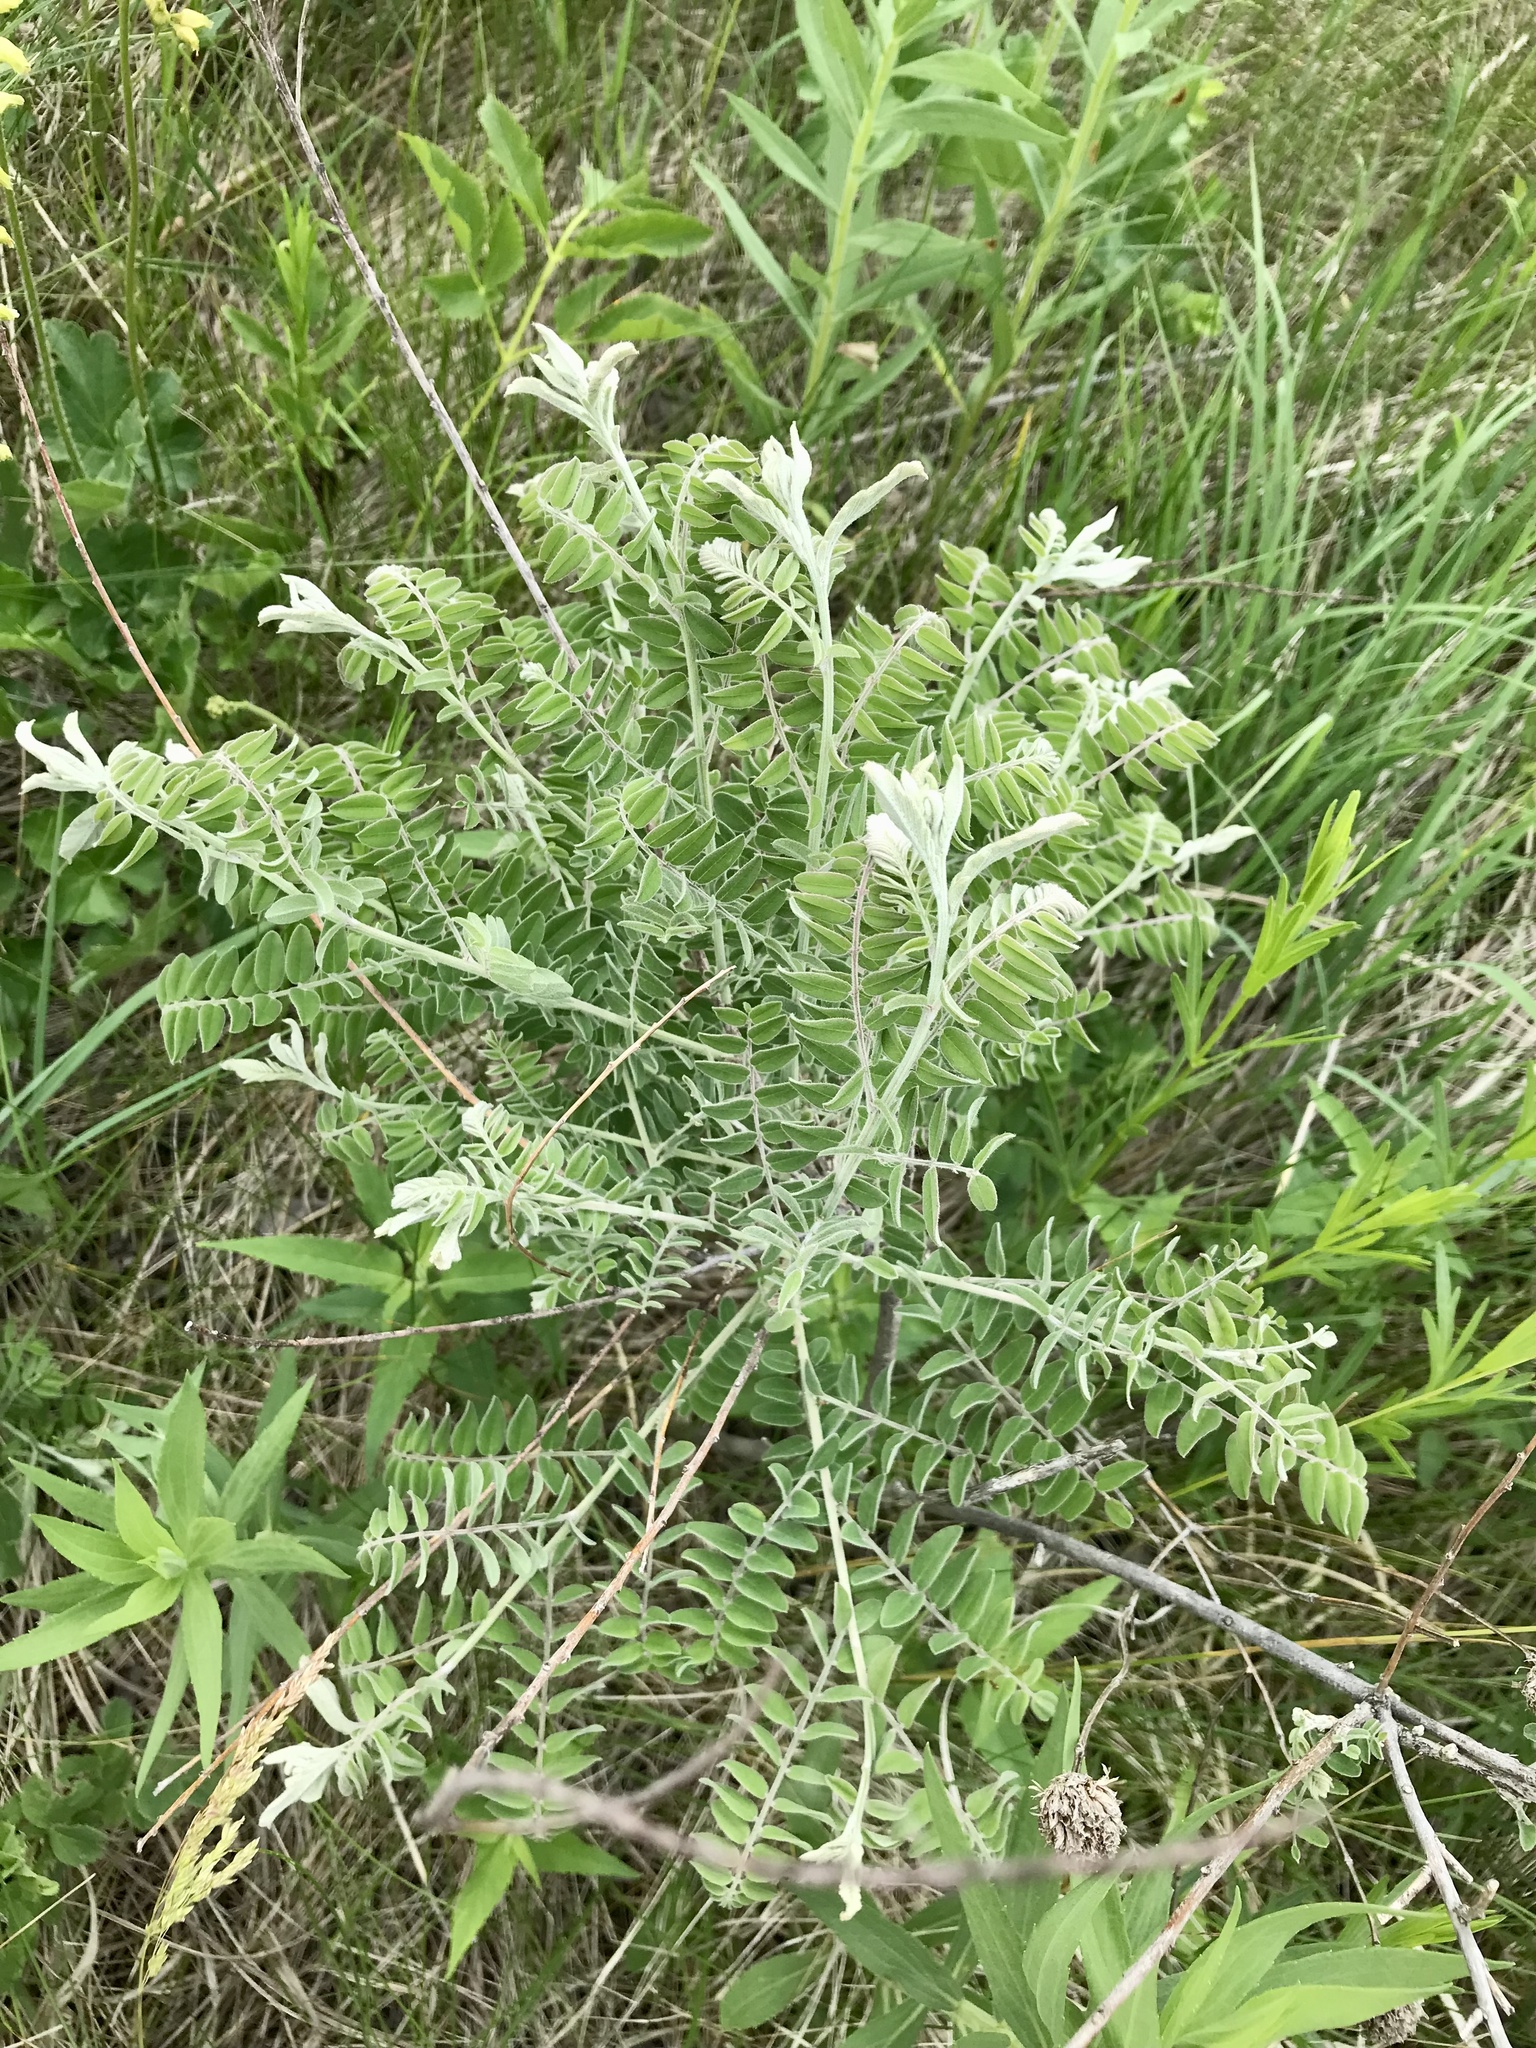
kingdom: Plantae
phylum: Tracheophyta
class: Magnoliopsida
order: Fabales
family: Fabaceae
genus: Amorpha
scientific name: Amorpha canescens
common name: Leadplant
